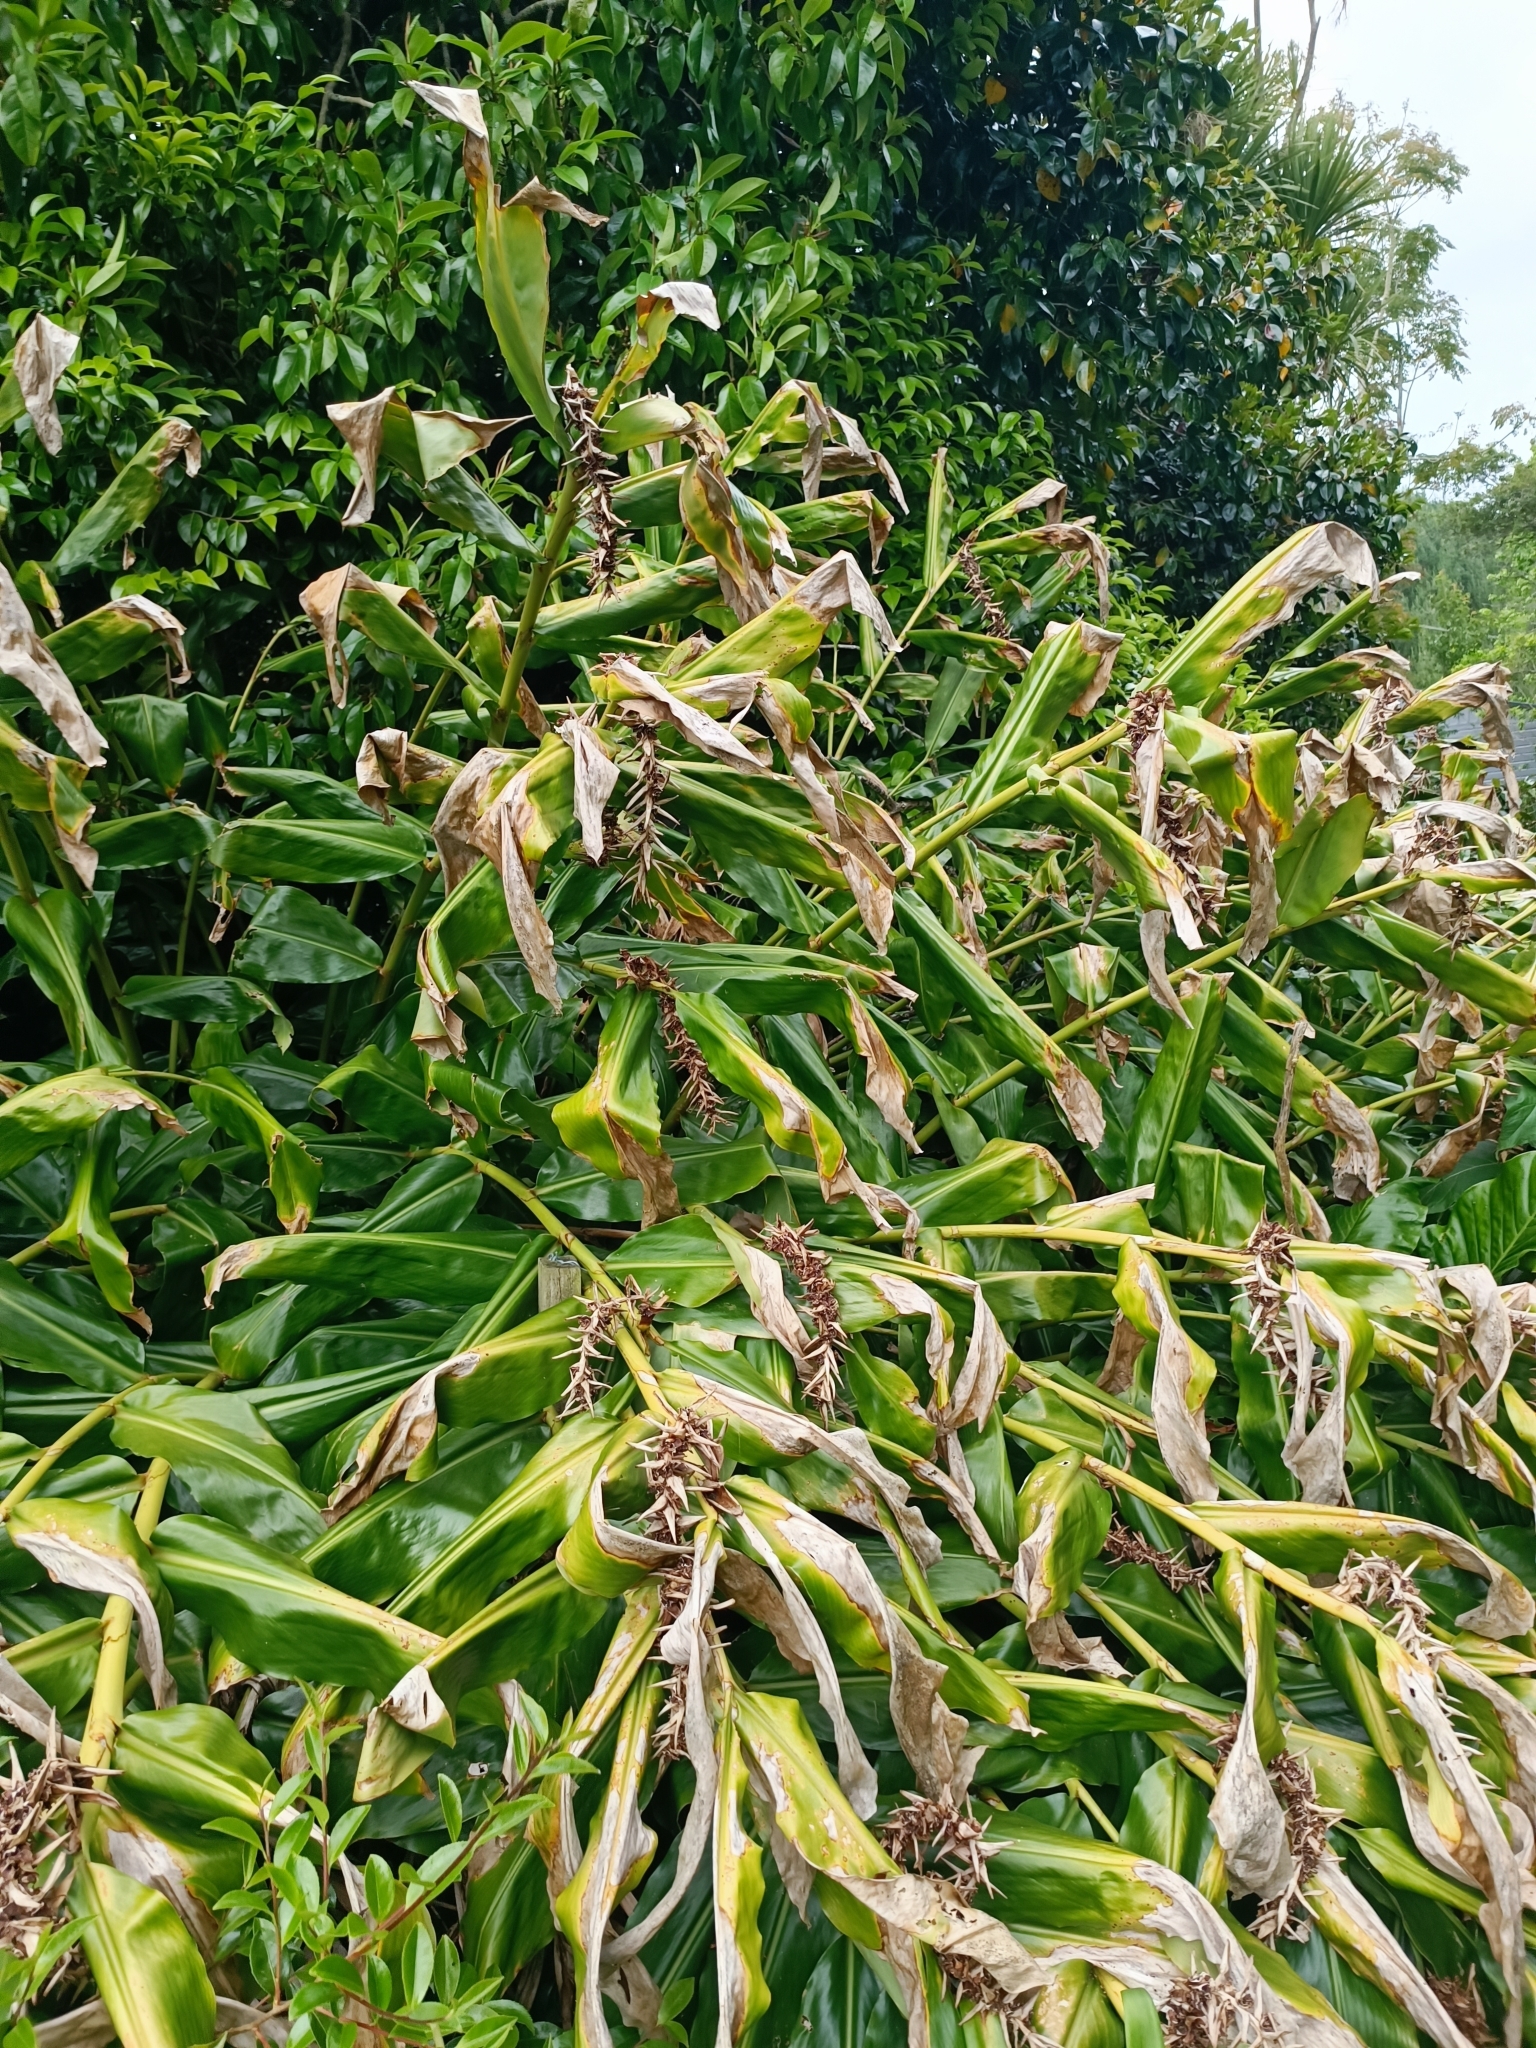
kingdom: Plantae
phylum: Tracheophyta
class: Liliopsida
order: Zingiberales
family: Zingiberaceae
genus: Hedychium
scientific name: Hedychium gardnerianum
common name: Himalayan ginger
